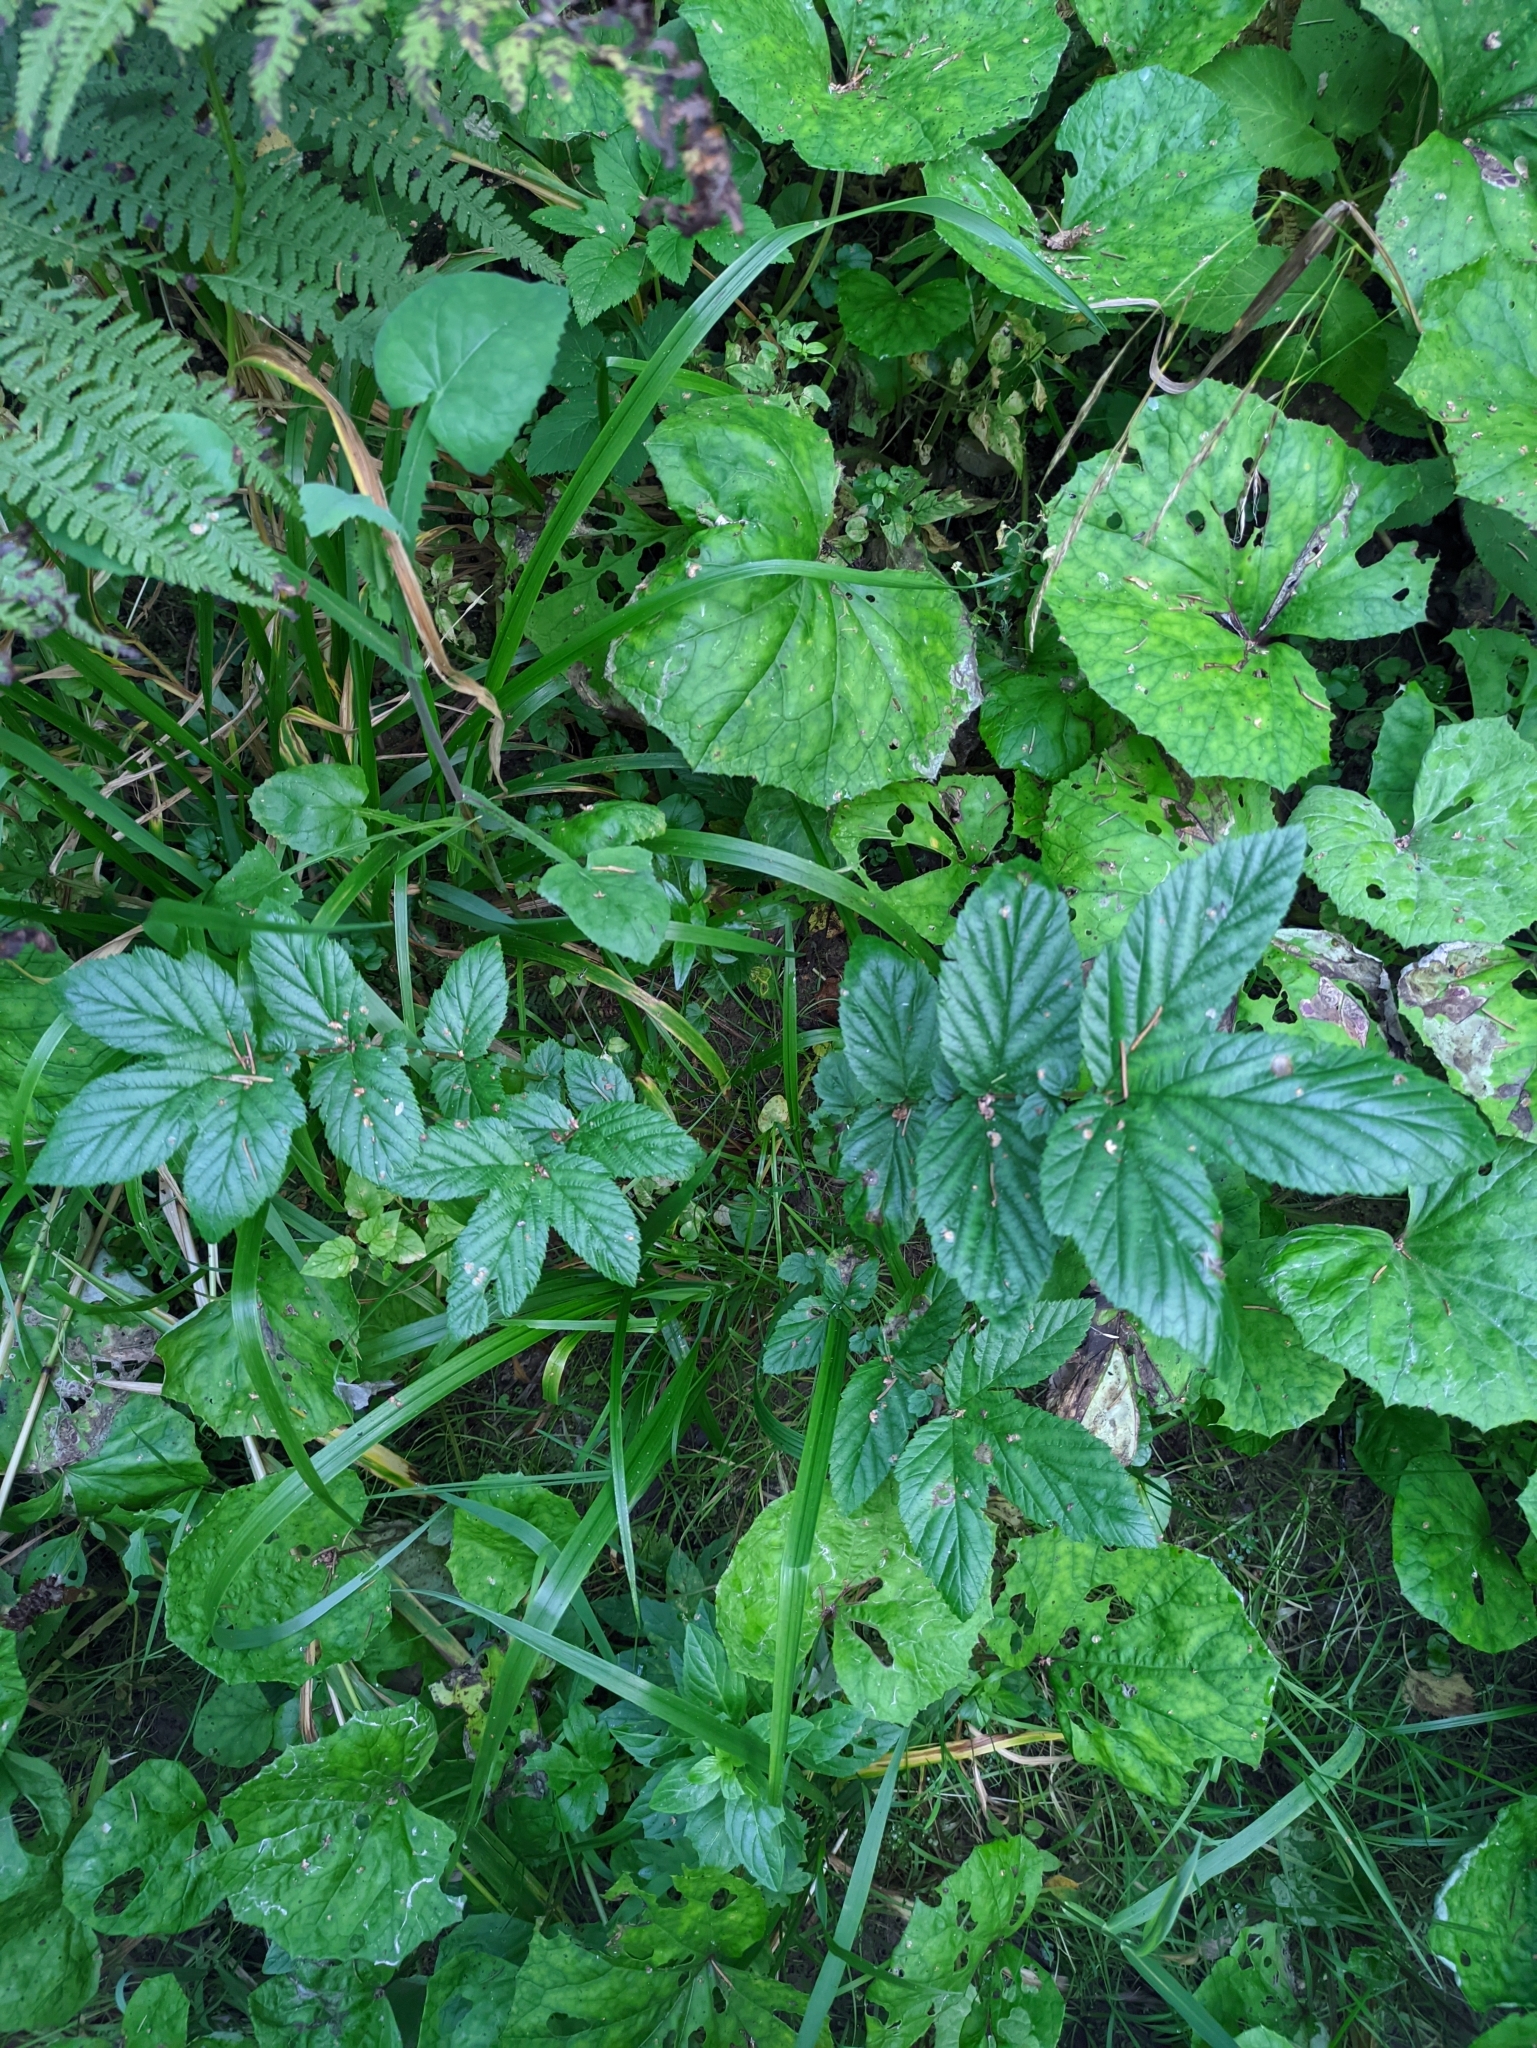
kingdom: Plantae
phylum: Tracheophyta
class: Magnoliopsida
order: Rosales
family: Rosaceae
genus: Filipendula
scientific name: Filipendula ulmaria
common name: Meadowsweet
